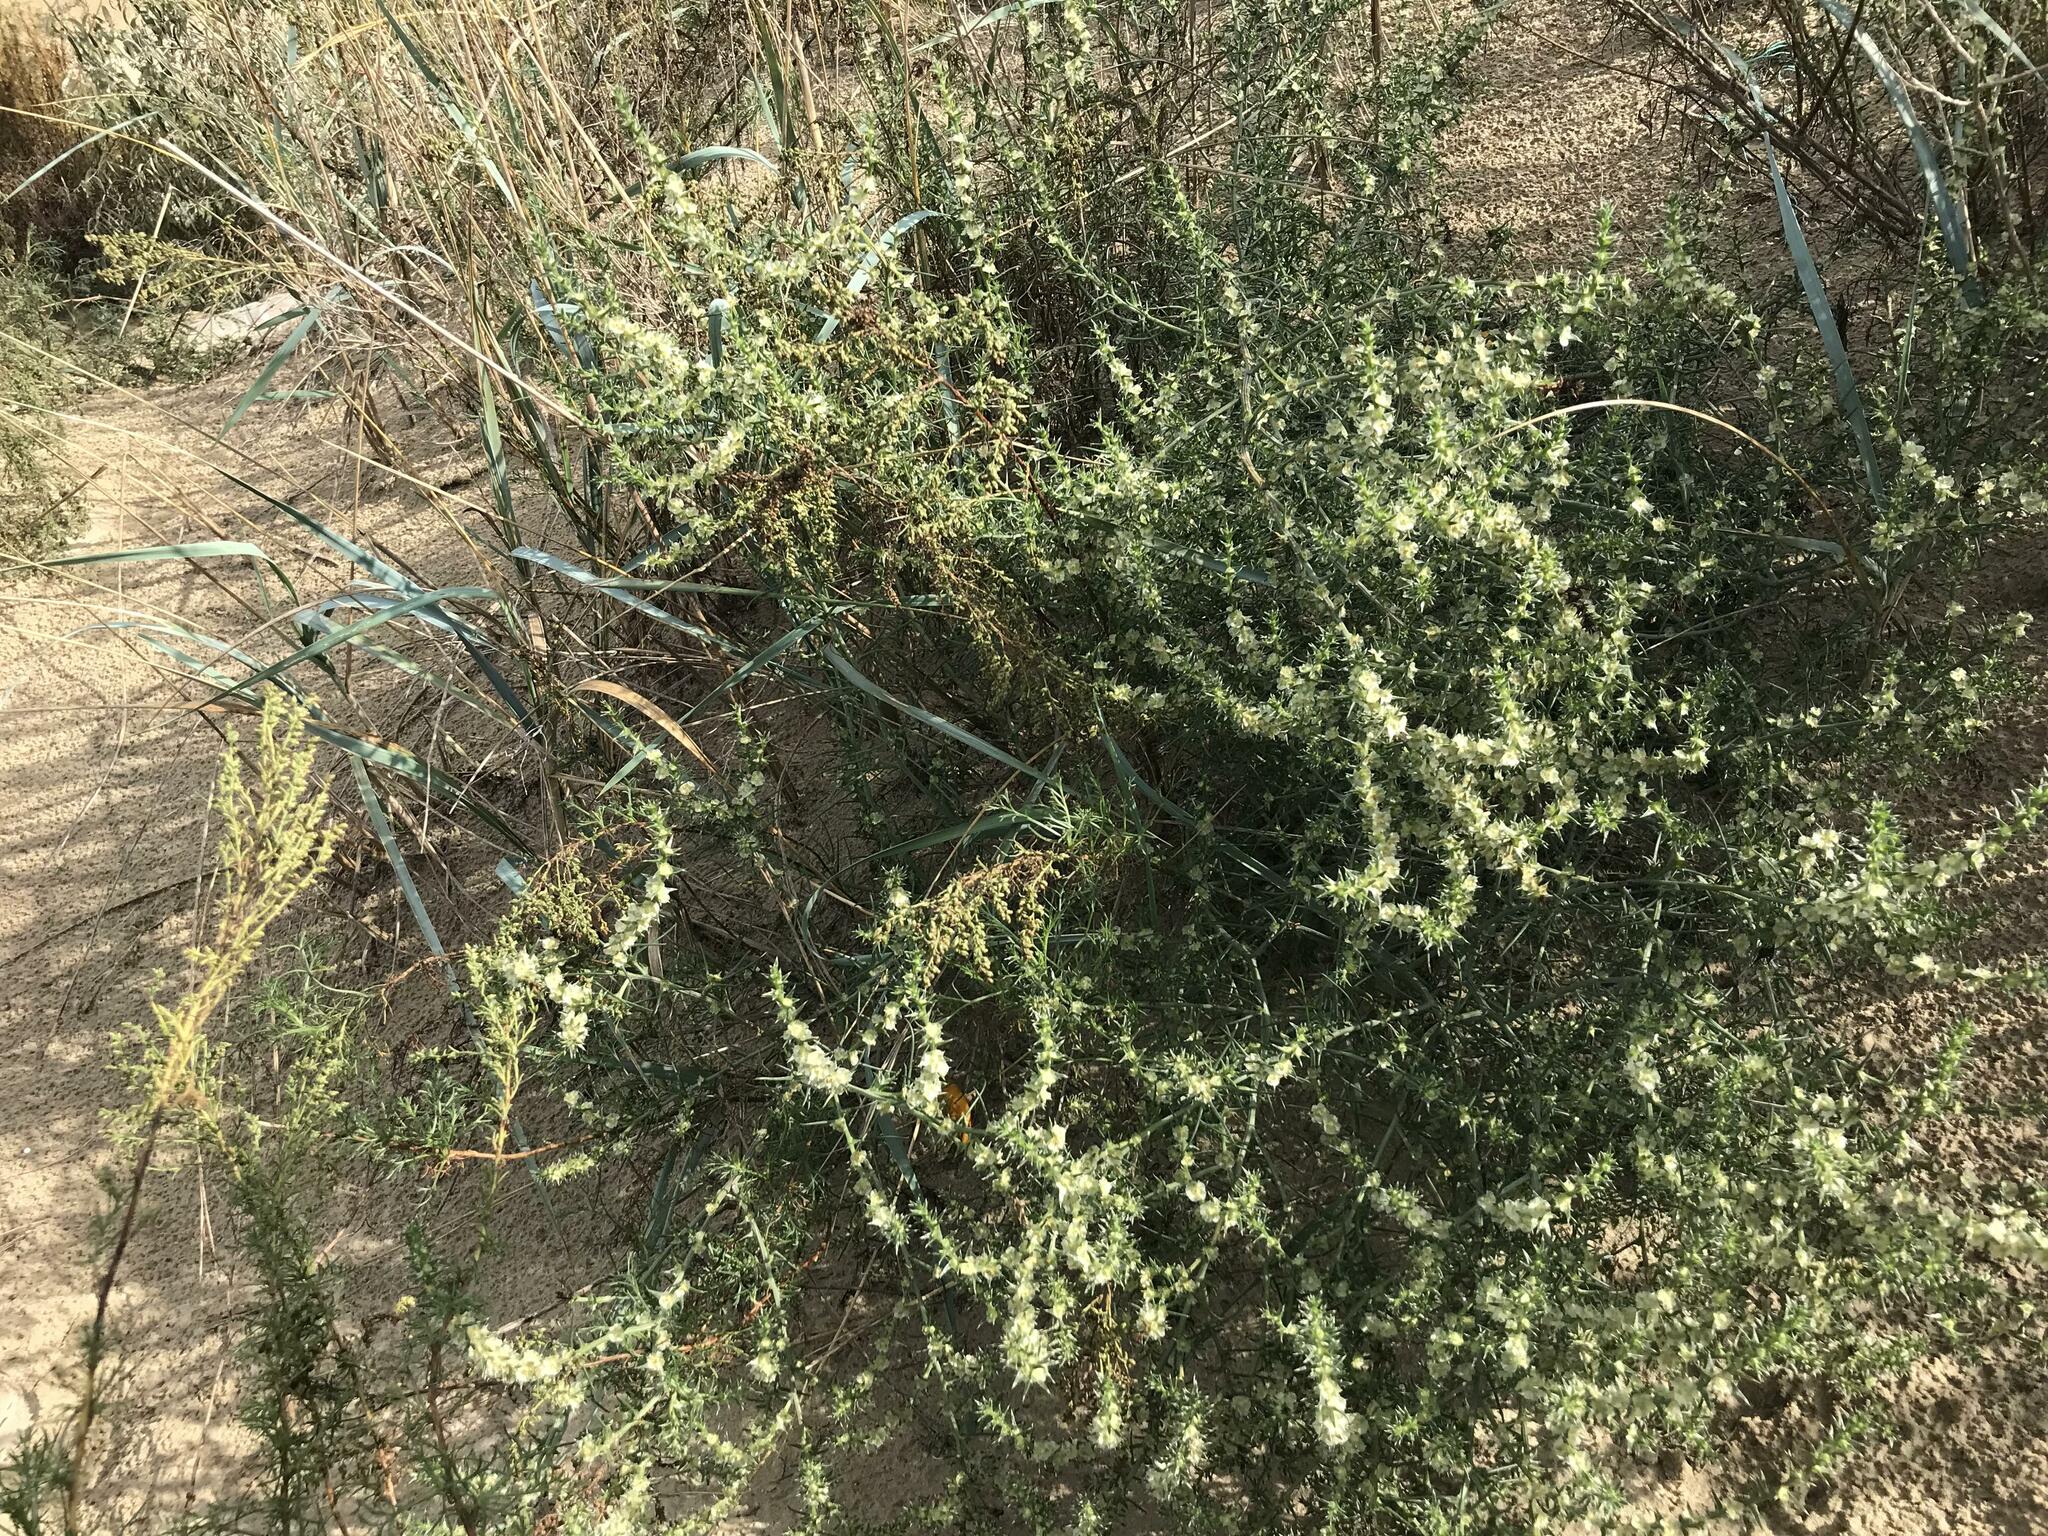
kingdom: Plantae
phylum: Tracheophyta
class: Magnoliopsida
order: Caryophyllales
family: Amaranthaceae
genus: Salsola
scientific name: Salsola tragus
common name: Prickly russian thistle
